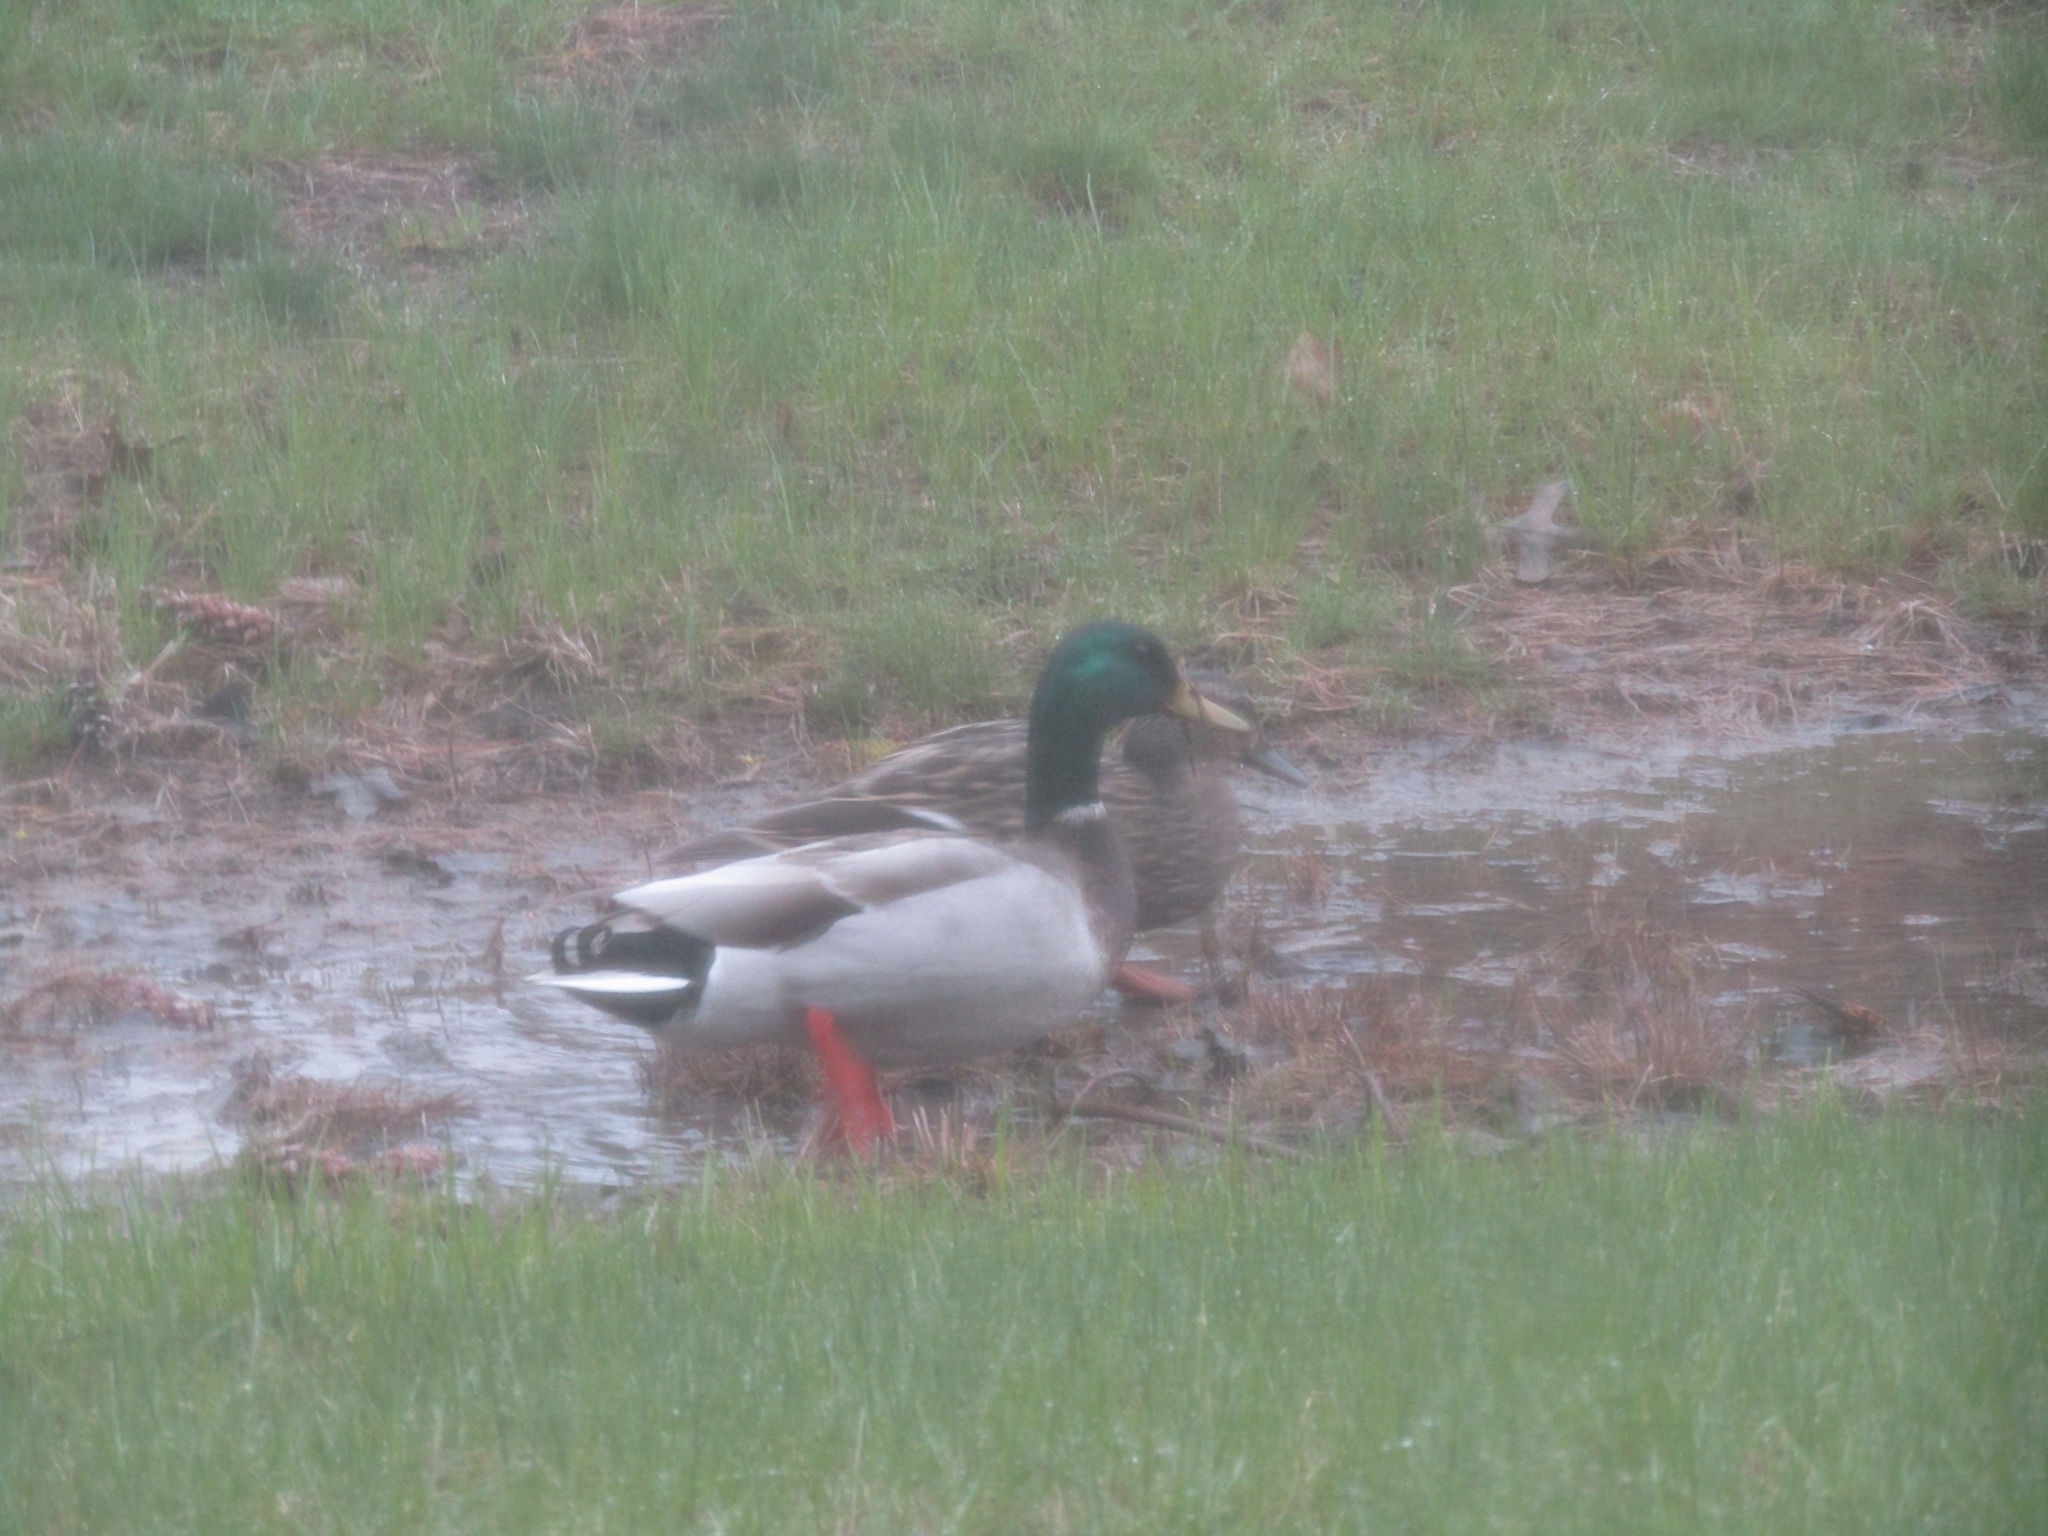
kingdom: Animalia
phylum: Chordata
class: Aves
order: Anseriformes
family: Anatidae
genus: Anas
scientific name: Anas platyrhynchos
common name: Mallard
